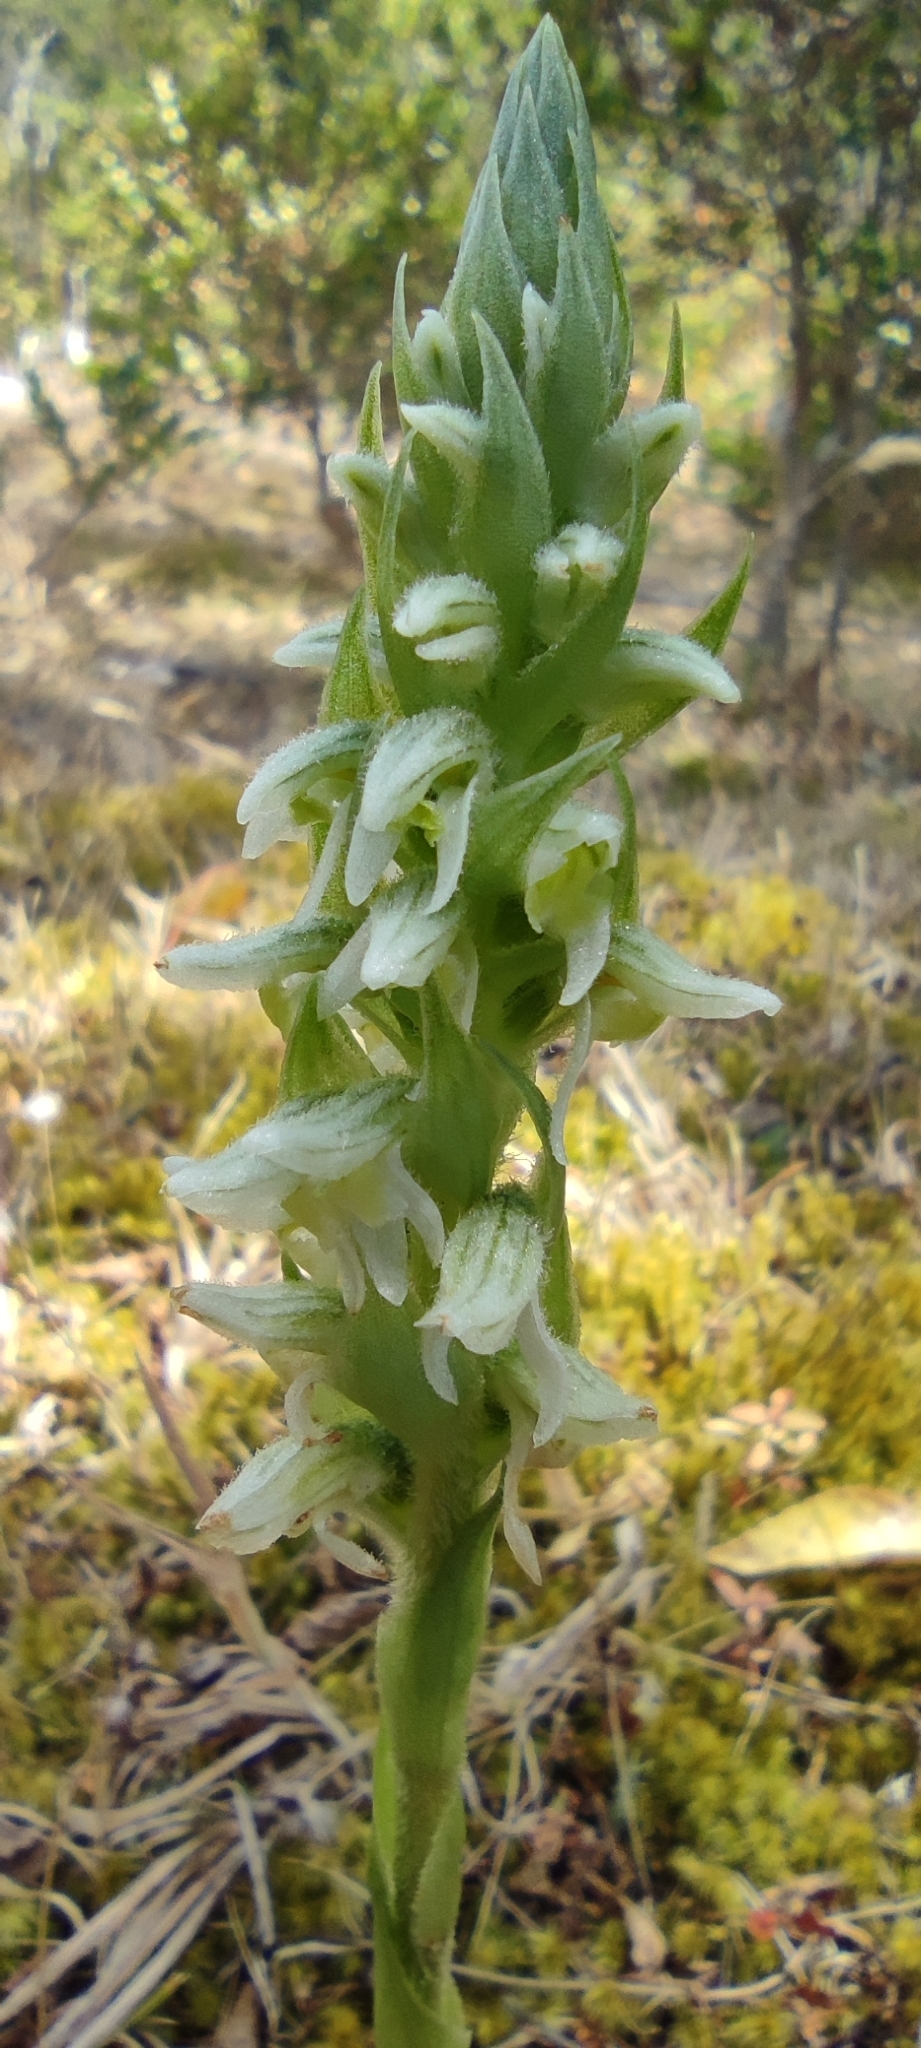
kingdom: Plantae
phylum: Tracheophyta
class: Liliopsida
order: Asparagales
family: Orchidaceae
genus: Brachystele
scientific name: Brachystele unilateralis
